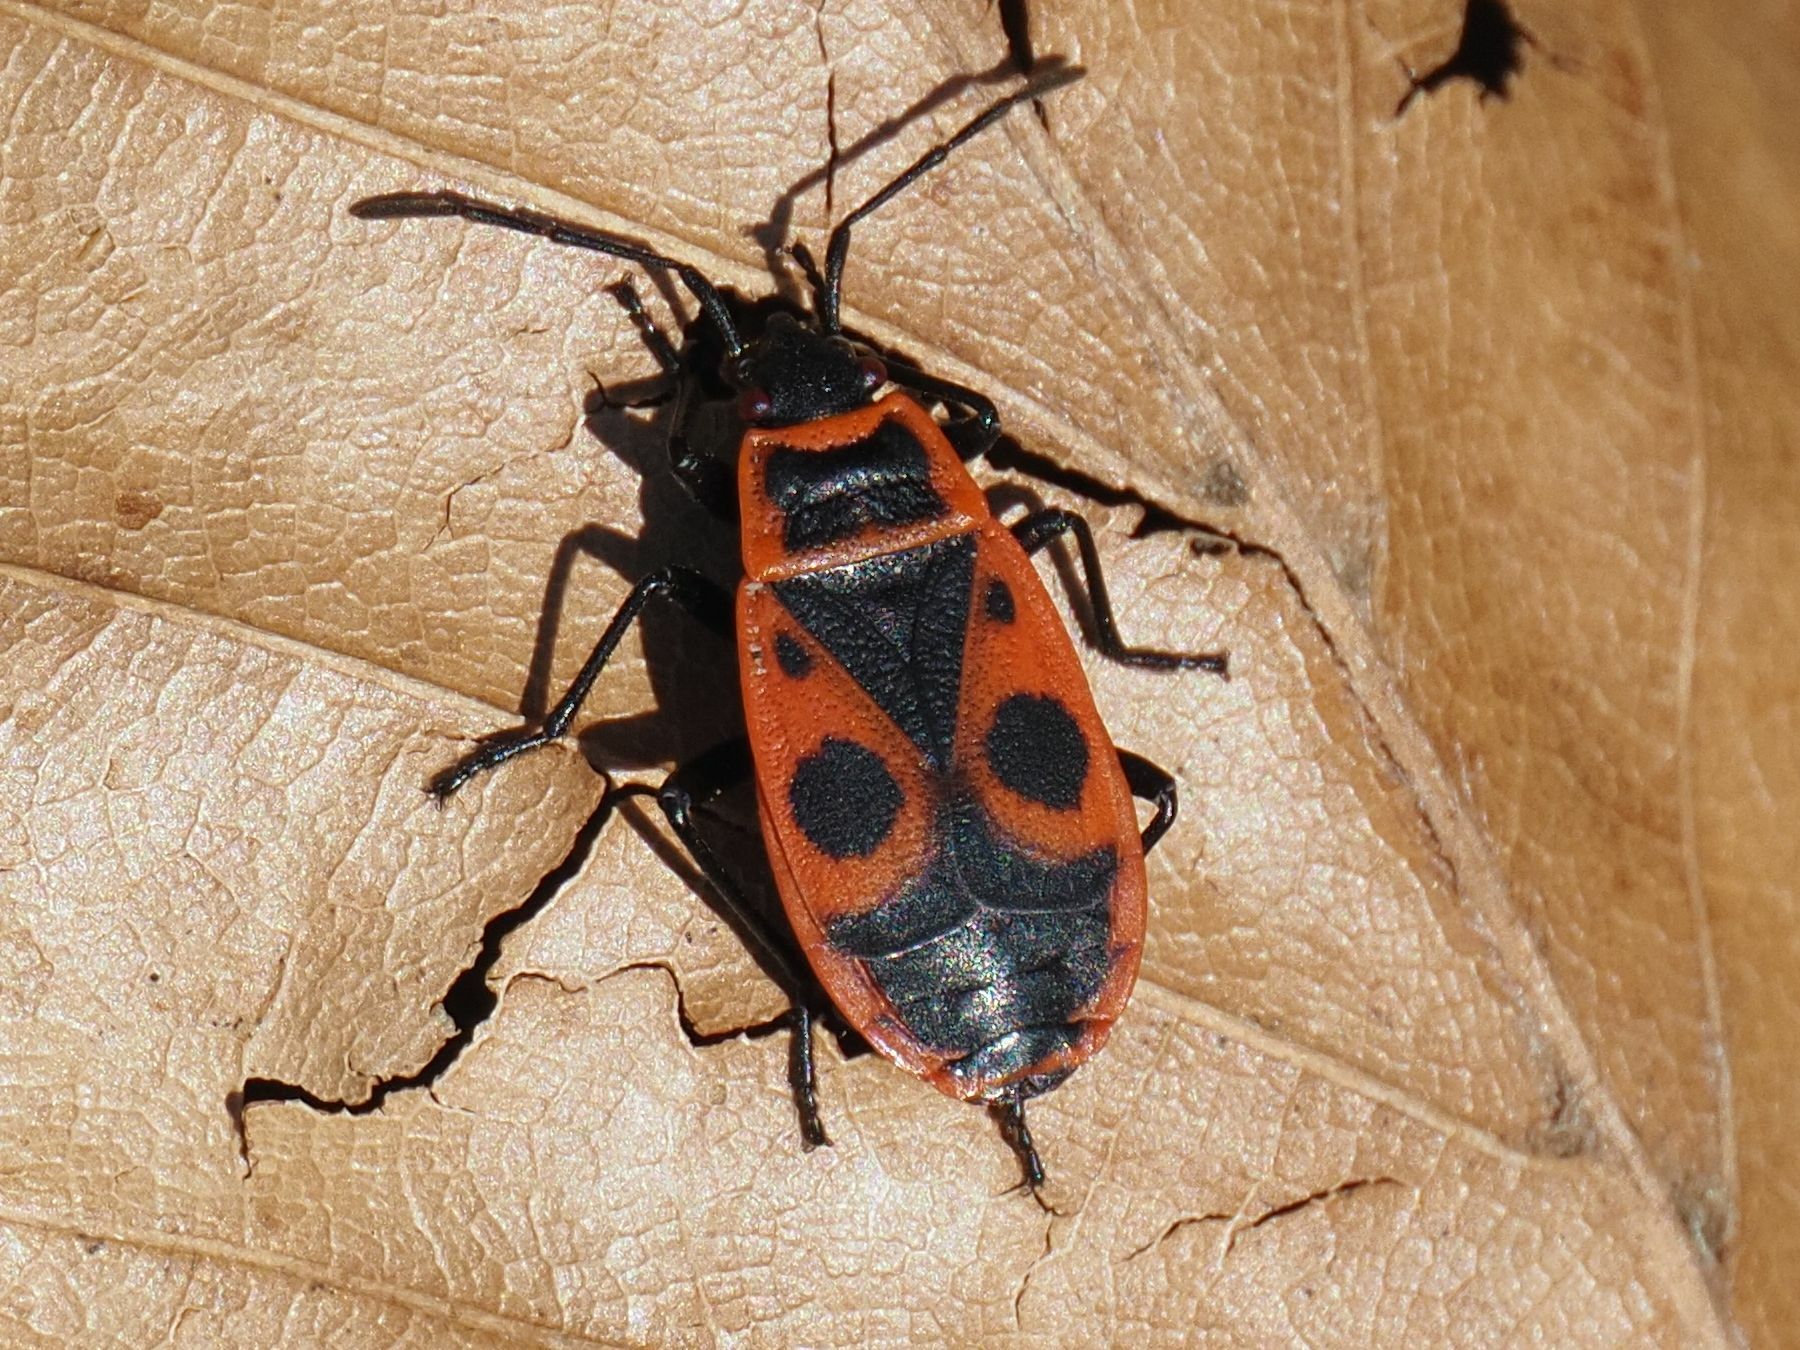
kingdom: Animalia
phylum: Arthropoda
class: Insecta
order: Hemiptera
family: Pyrrhocoridae
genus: Pyrrhocoris
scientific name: Pyrrhocoris apterus
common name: Firebug
